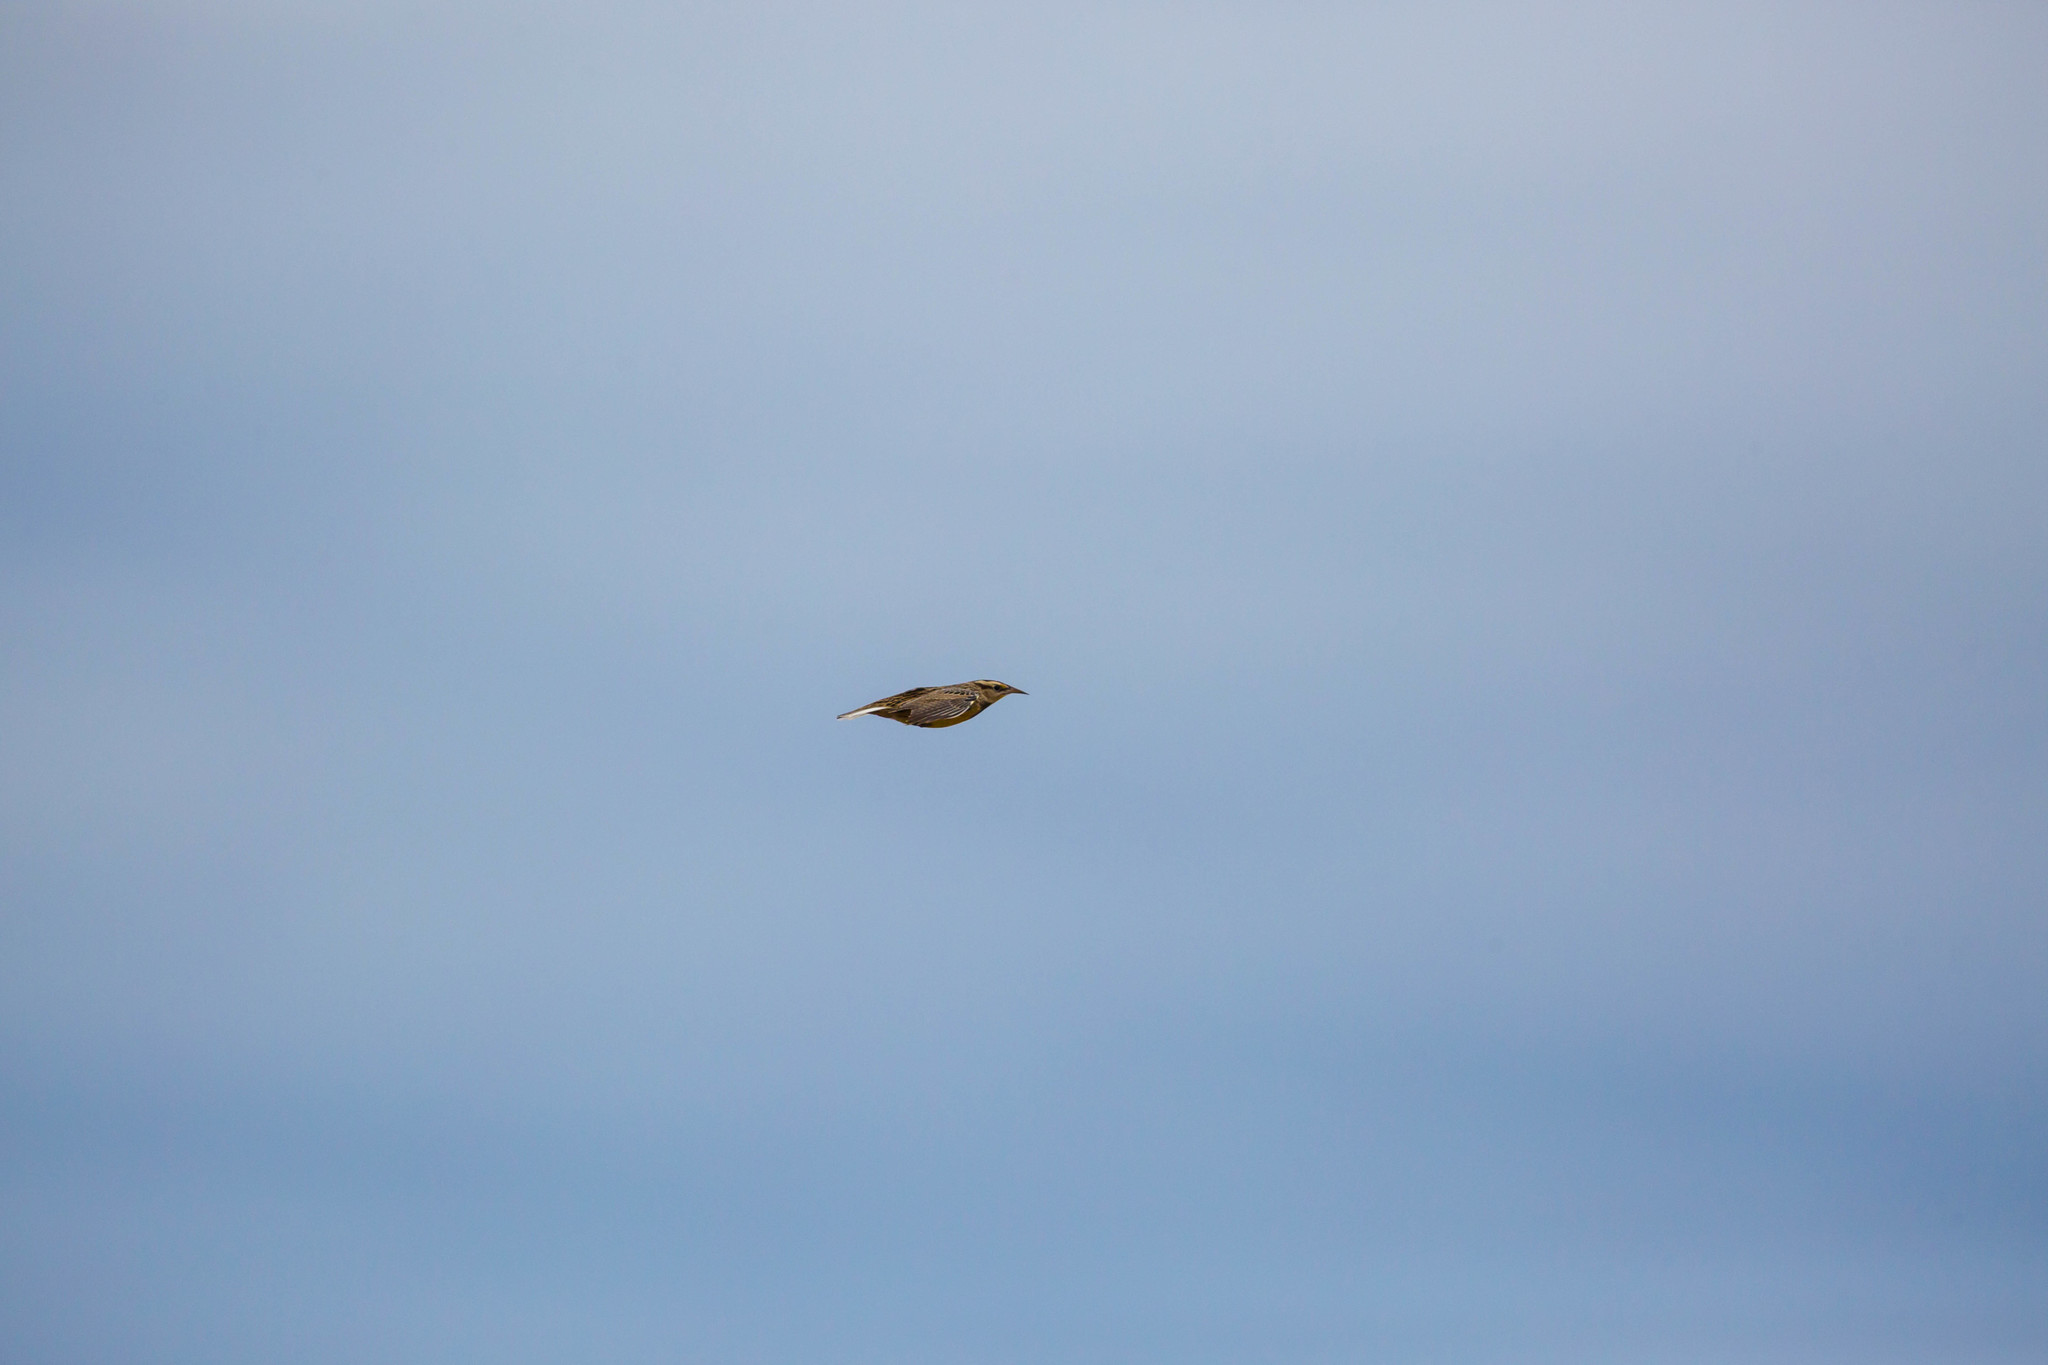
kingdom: Animalia
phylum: Chordata
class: Aves
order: Passeriformes
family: Icteridae
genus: Sturnella
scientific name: Sturnella magna
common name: Eastern meadowlark
